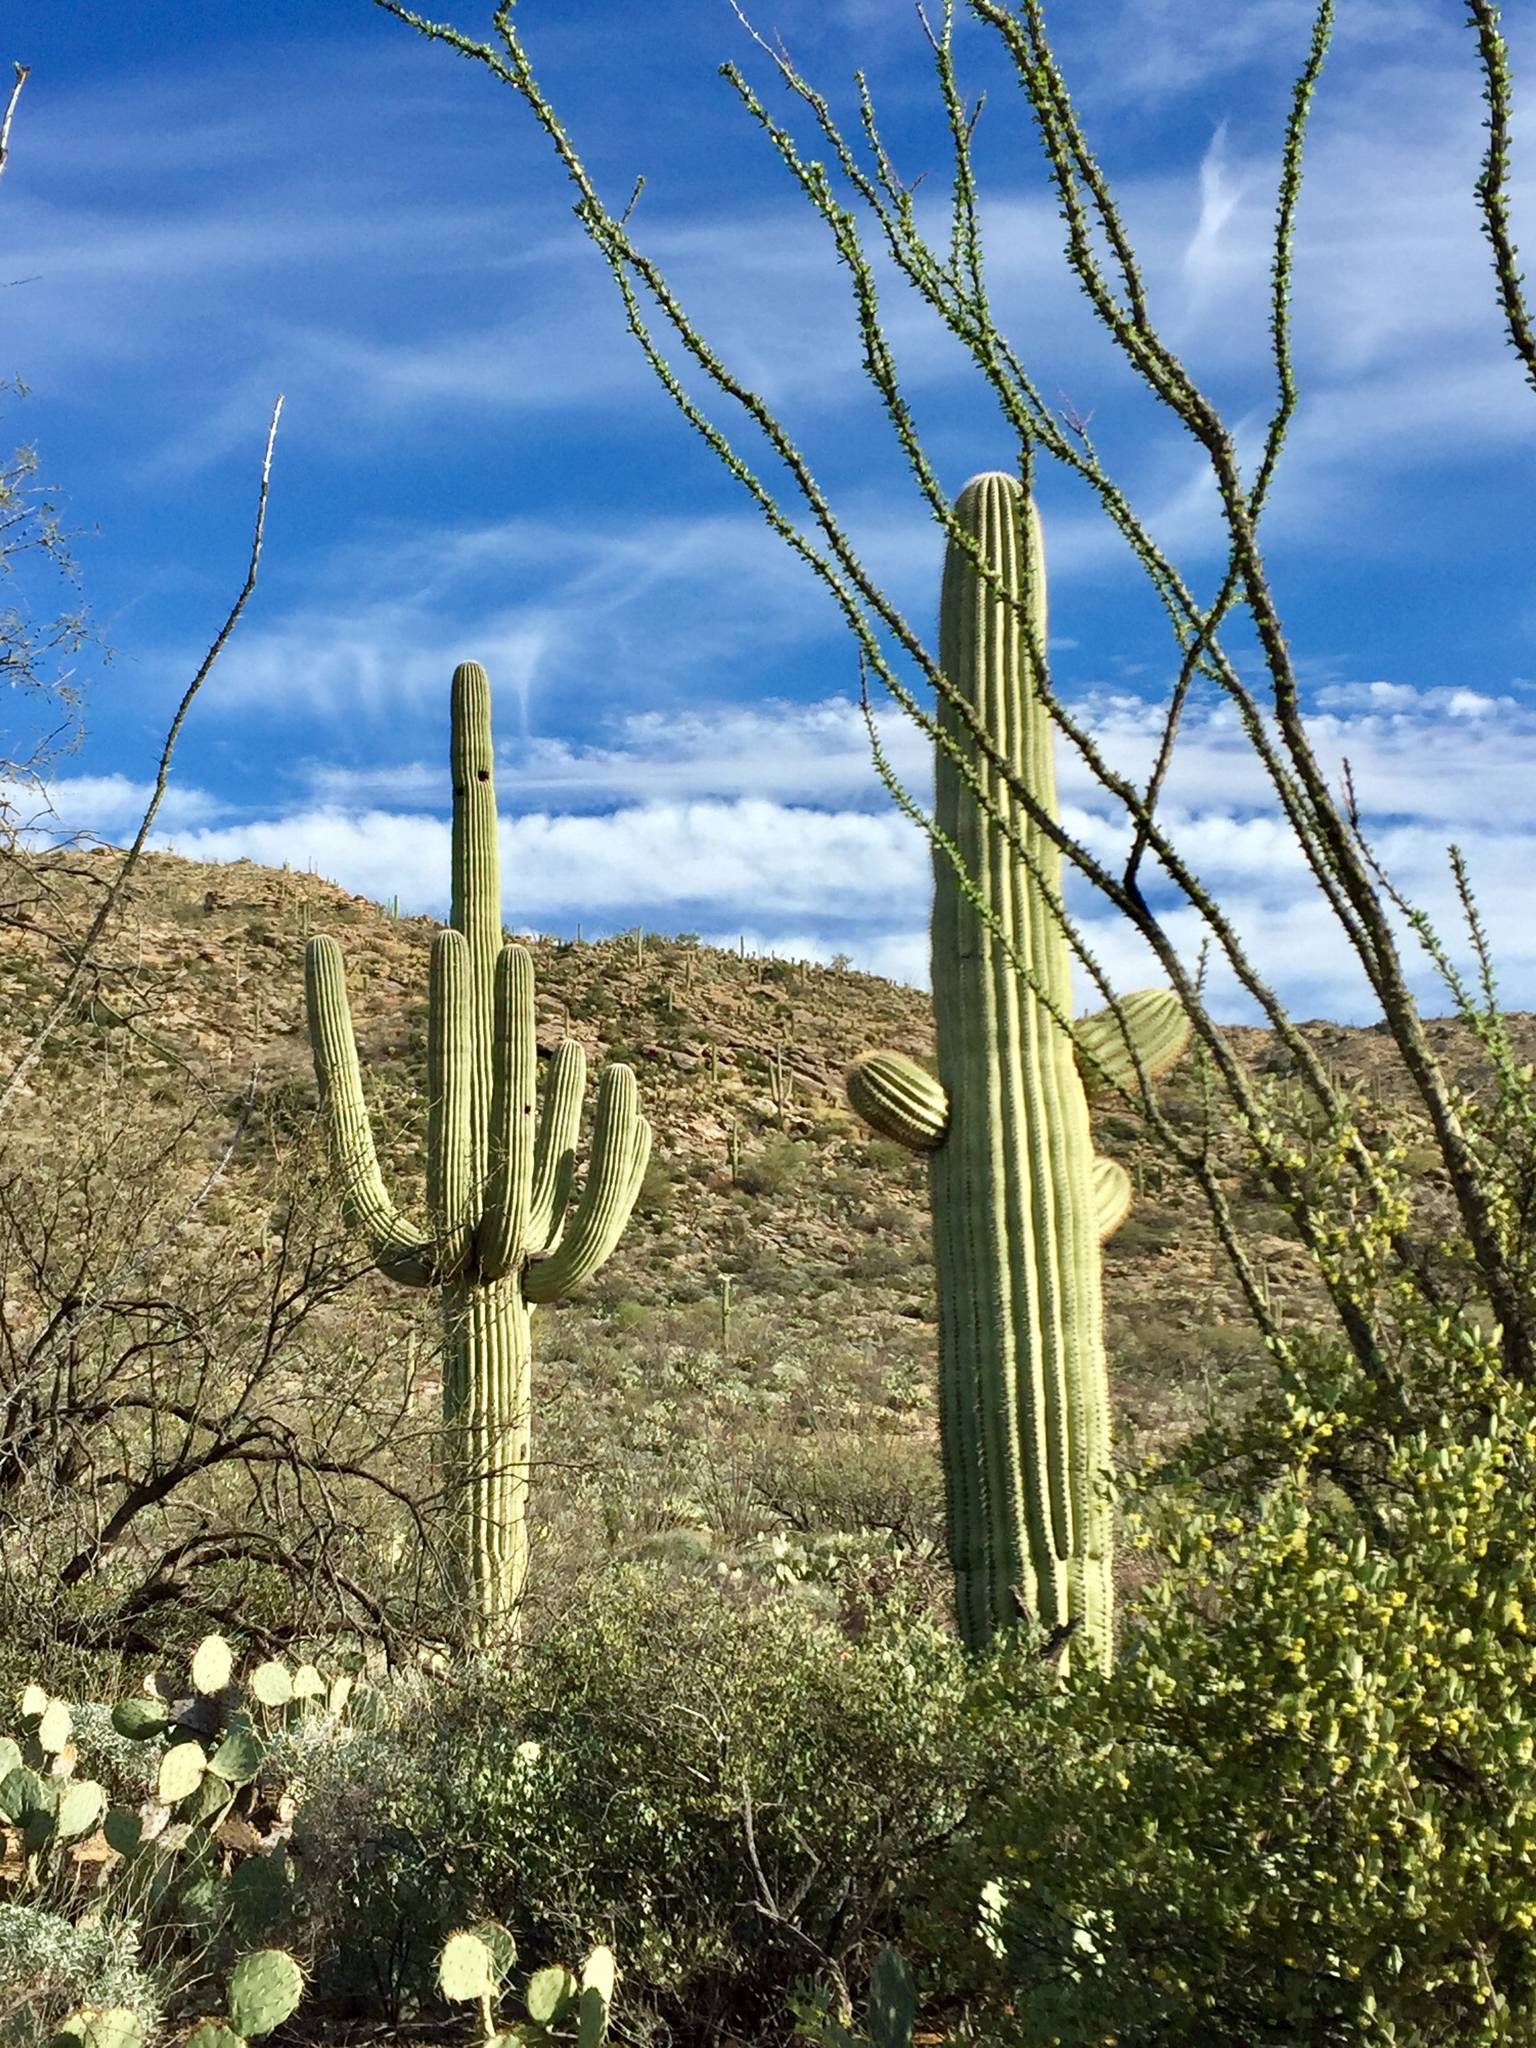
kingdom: Plantae
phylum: Tracheophyta
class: Magnoliopsida
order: Caryophyllales
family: Cactaceae
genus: Carnegiea
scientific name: Carnegiea gigantea
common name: Saguaro
